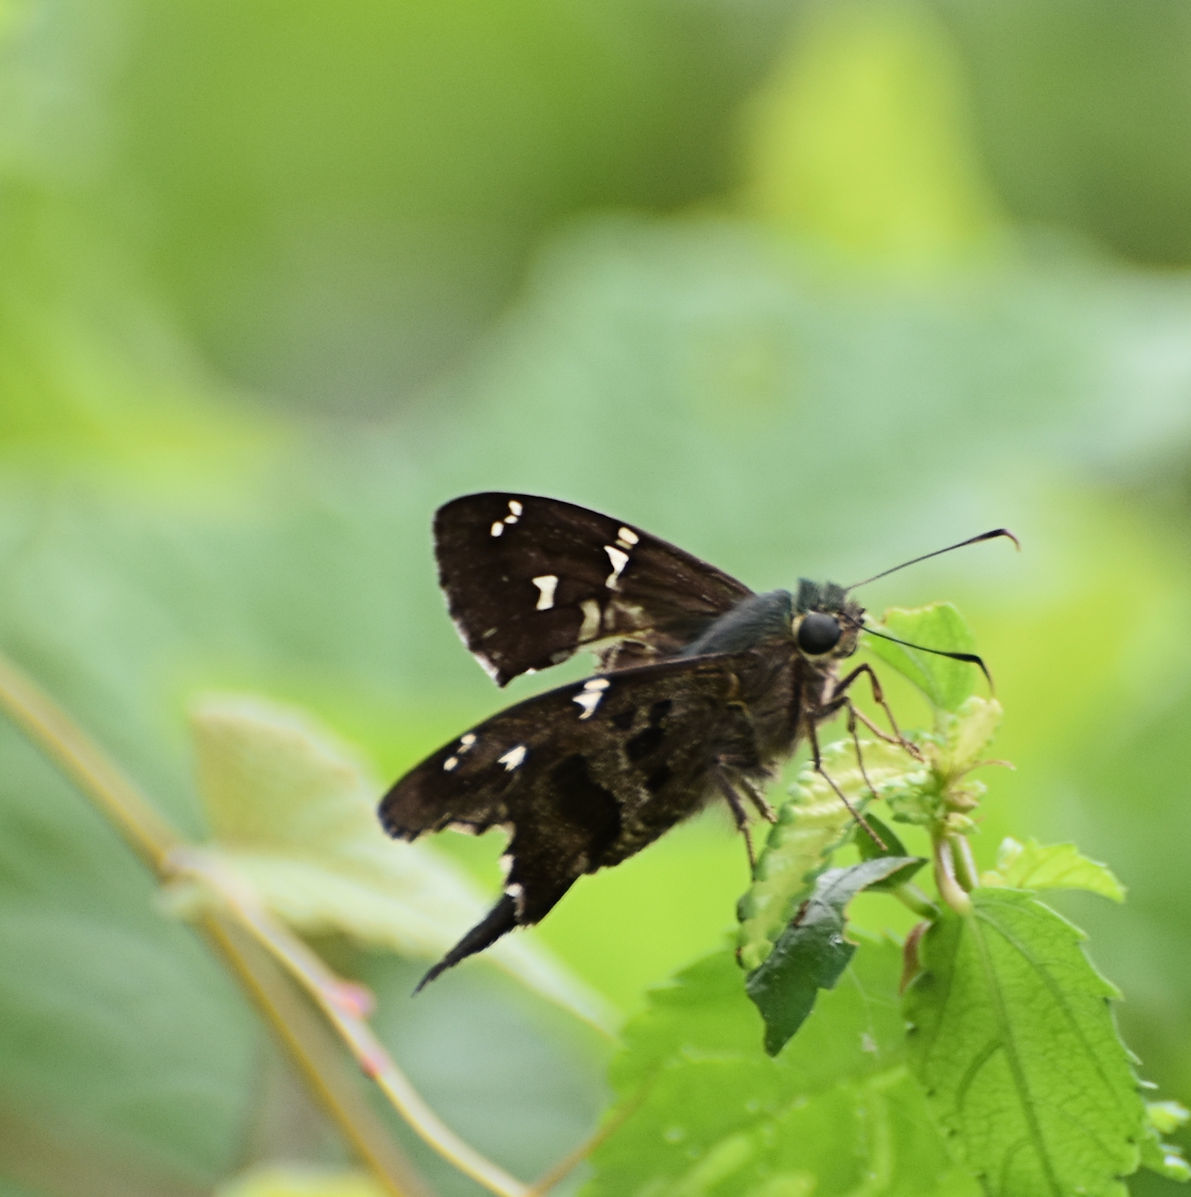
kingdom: Animalia
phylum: Arthropoda
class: Insecta
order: Lepidoptera
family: Hesperiidae
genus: Urbanus
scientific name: Urbanus proteus
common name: Long-tailed skipper
